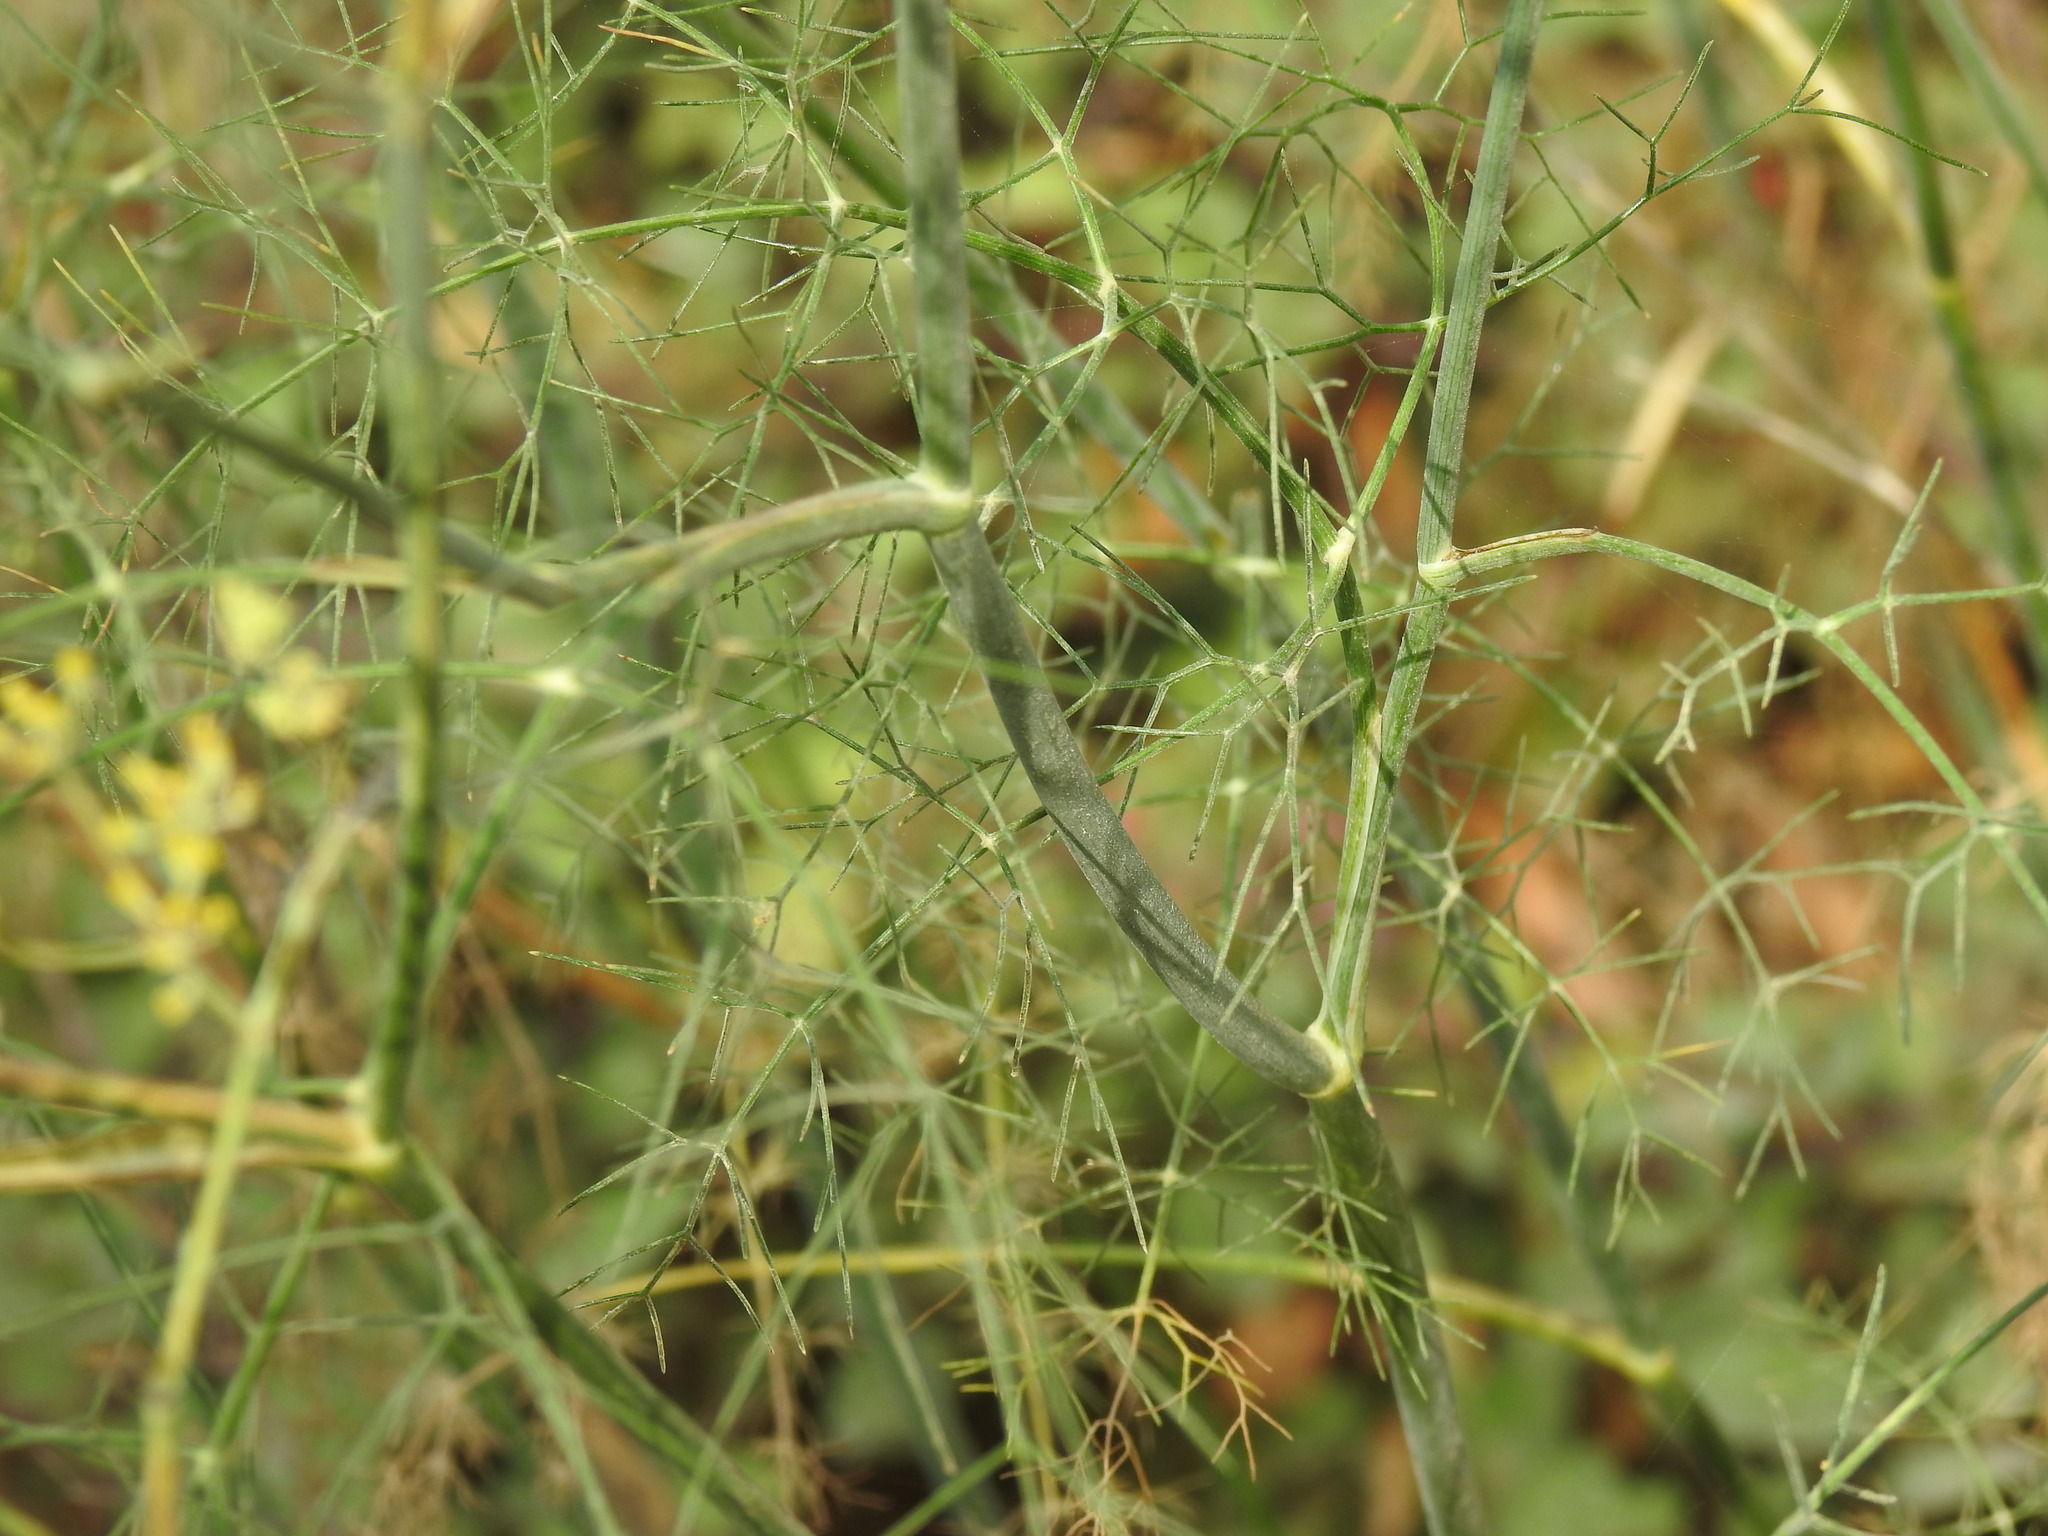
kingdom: Plantae
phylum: Tracheophyta
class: Magnoliopsida
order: Apiales
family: Apiaceae
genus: Foeniculum
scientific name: Foeniculum vulgare
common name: Fennel
